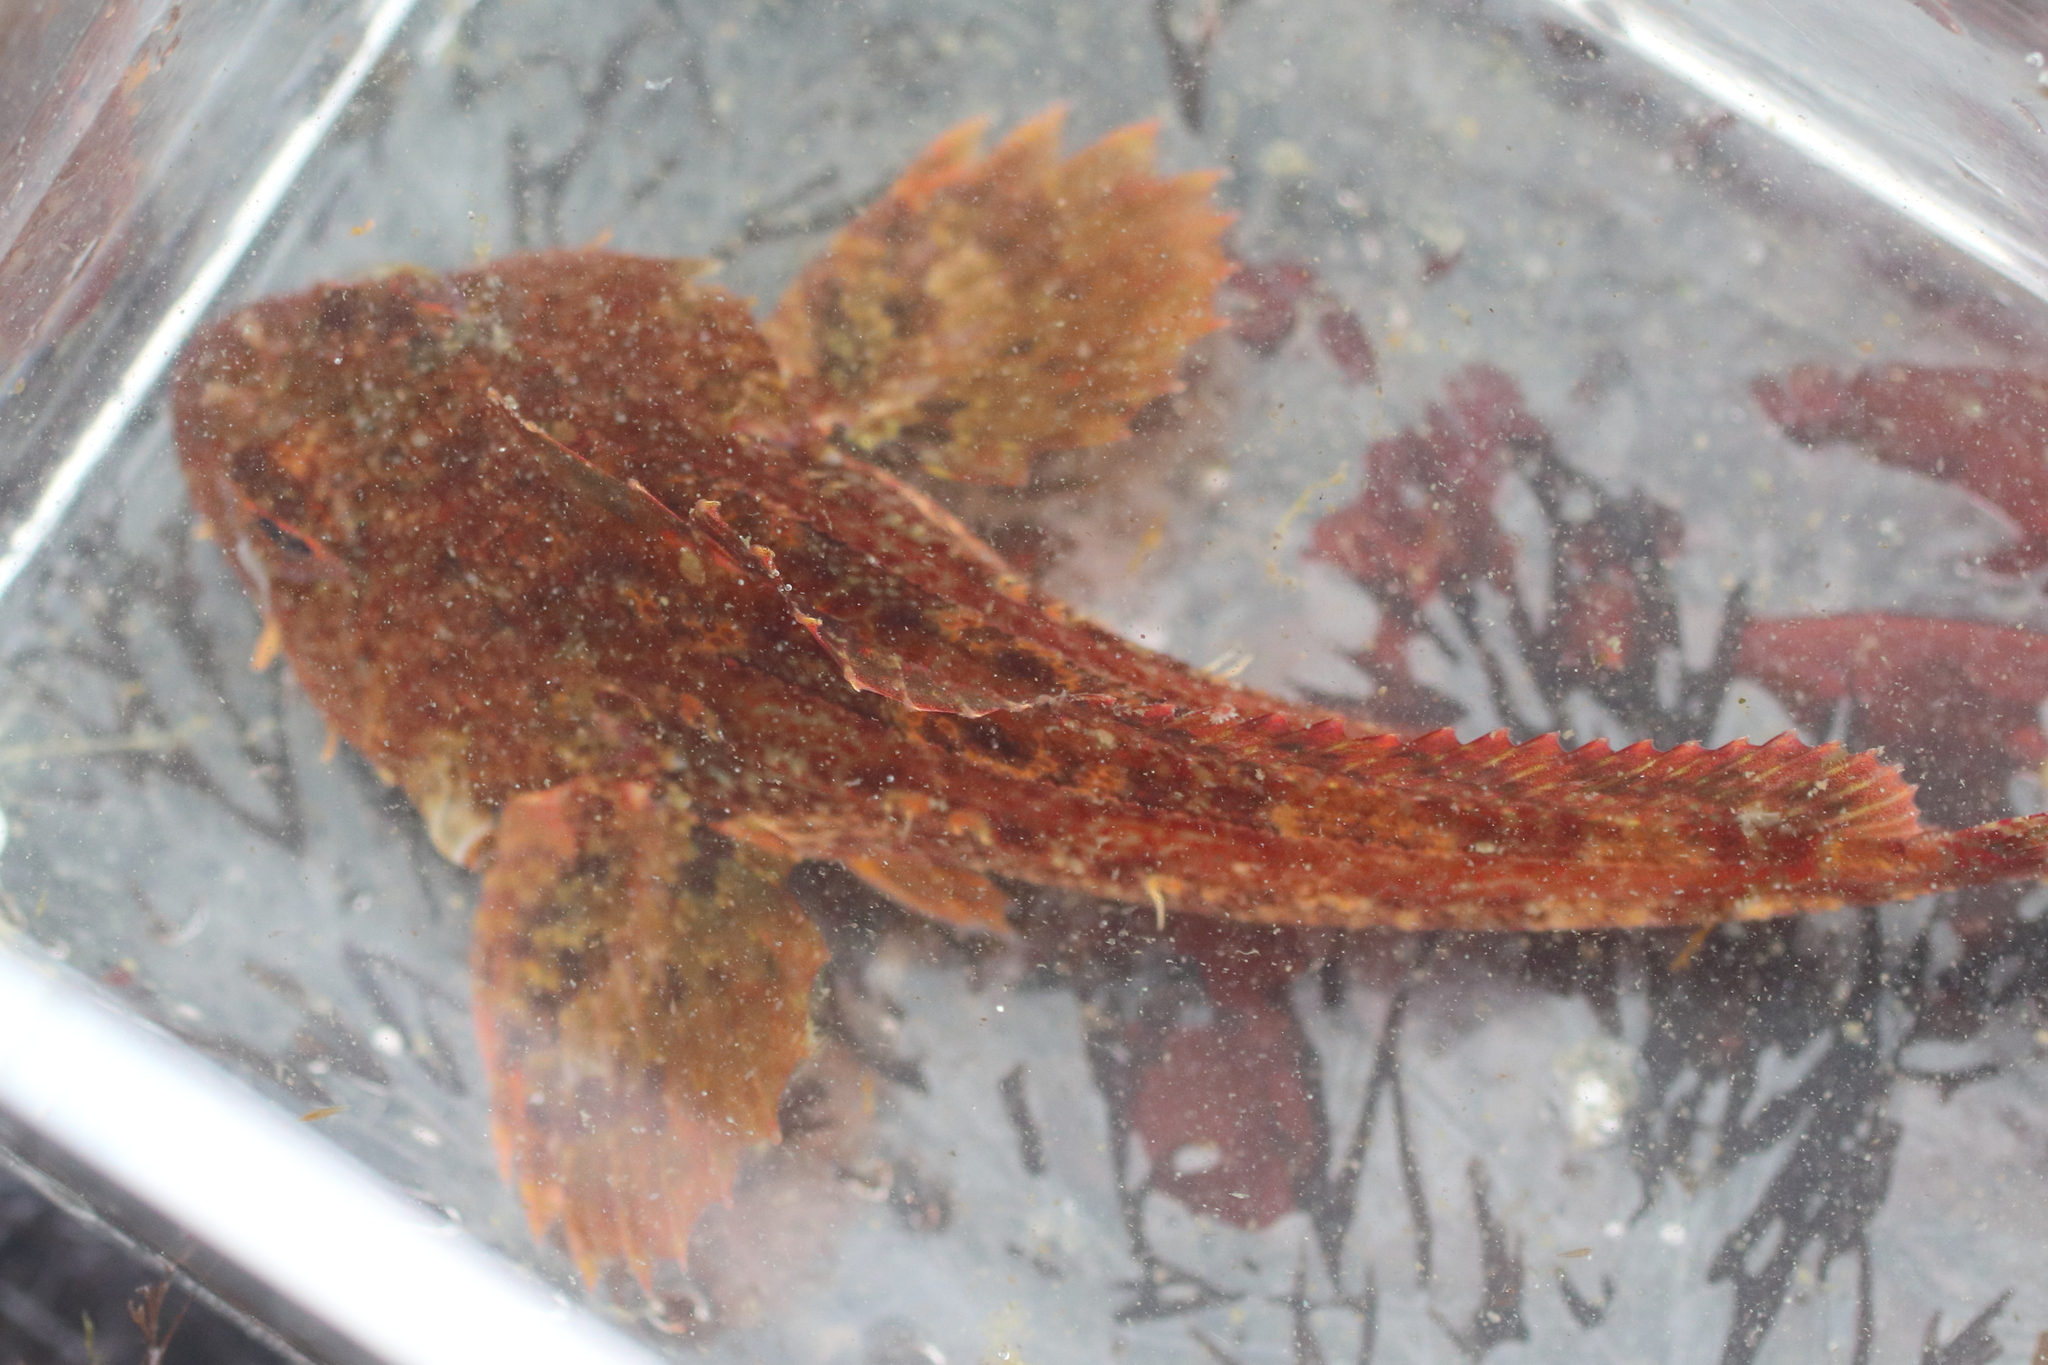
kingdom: Animalia
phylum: Chordata
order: Scorpaeniformes
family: Cottidae
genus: Hemilepidotus
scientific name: Hemilepidotus hemilepidotus
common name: Red irish lord
